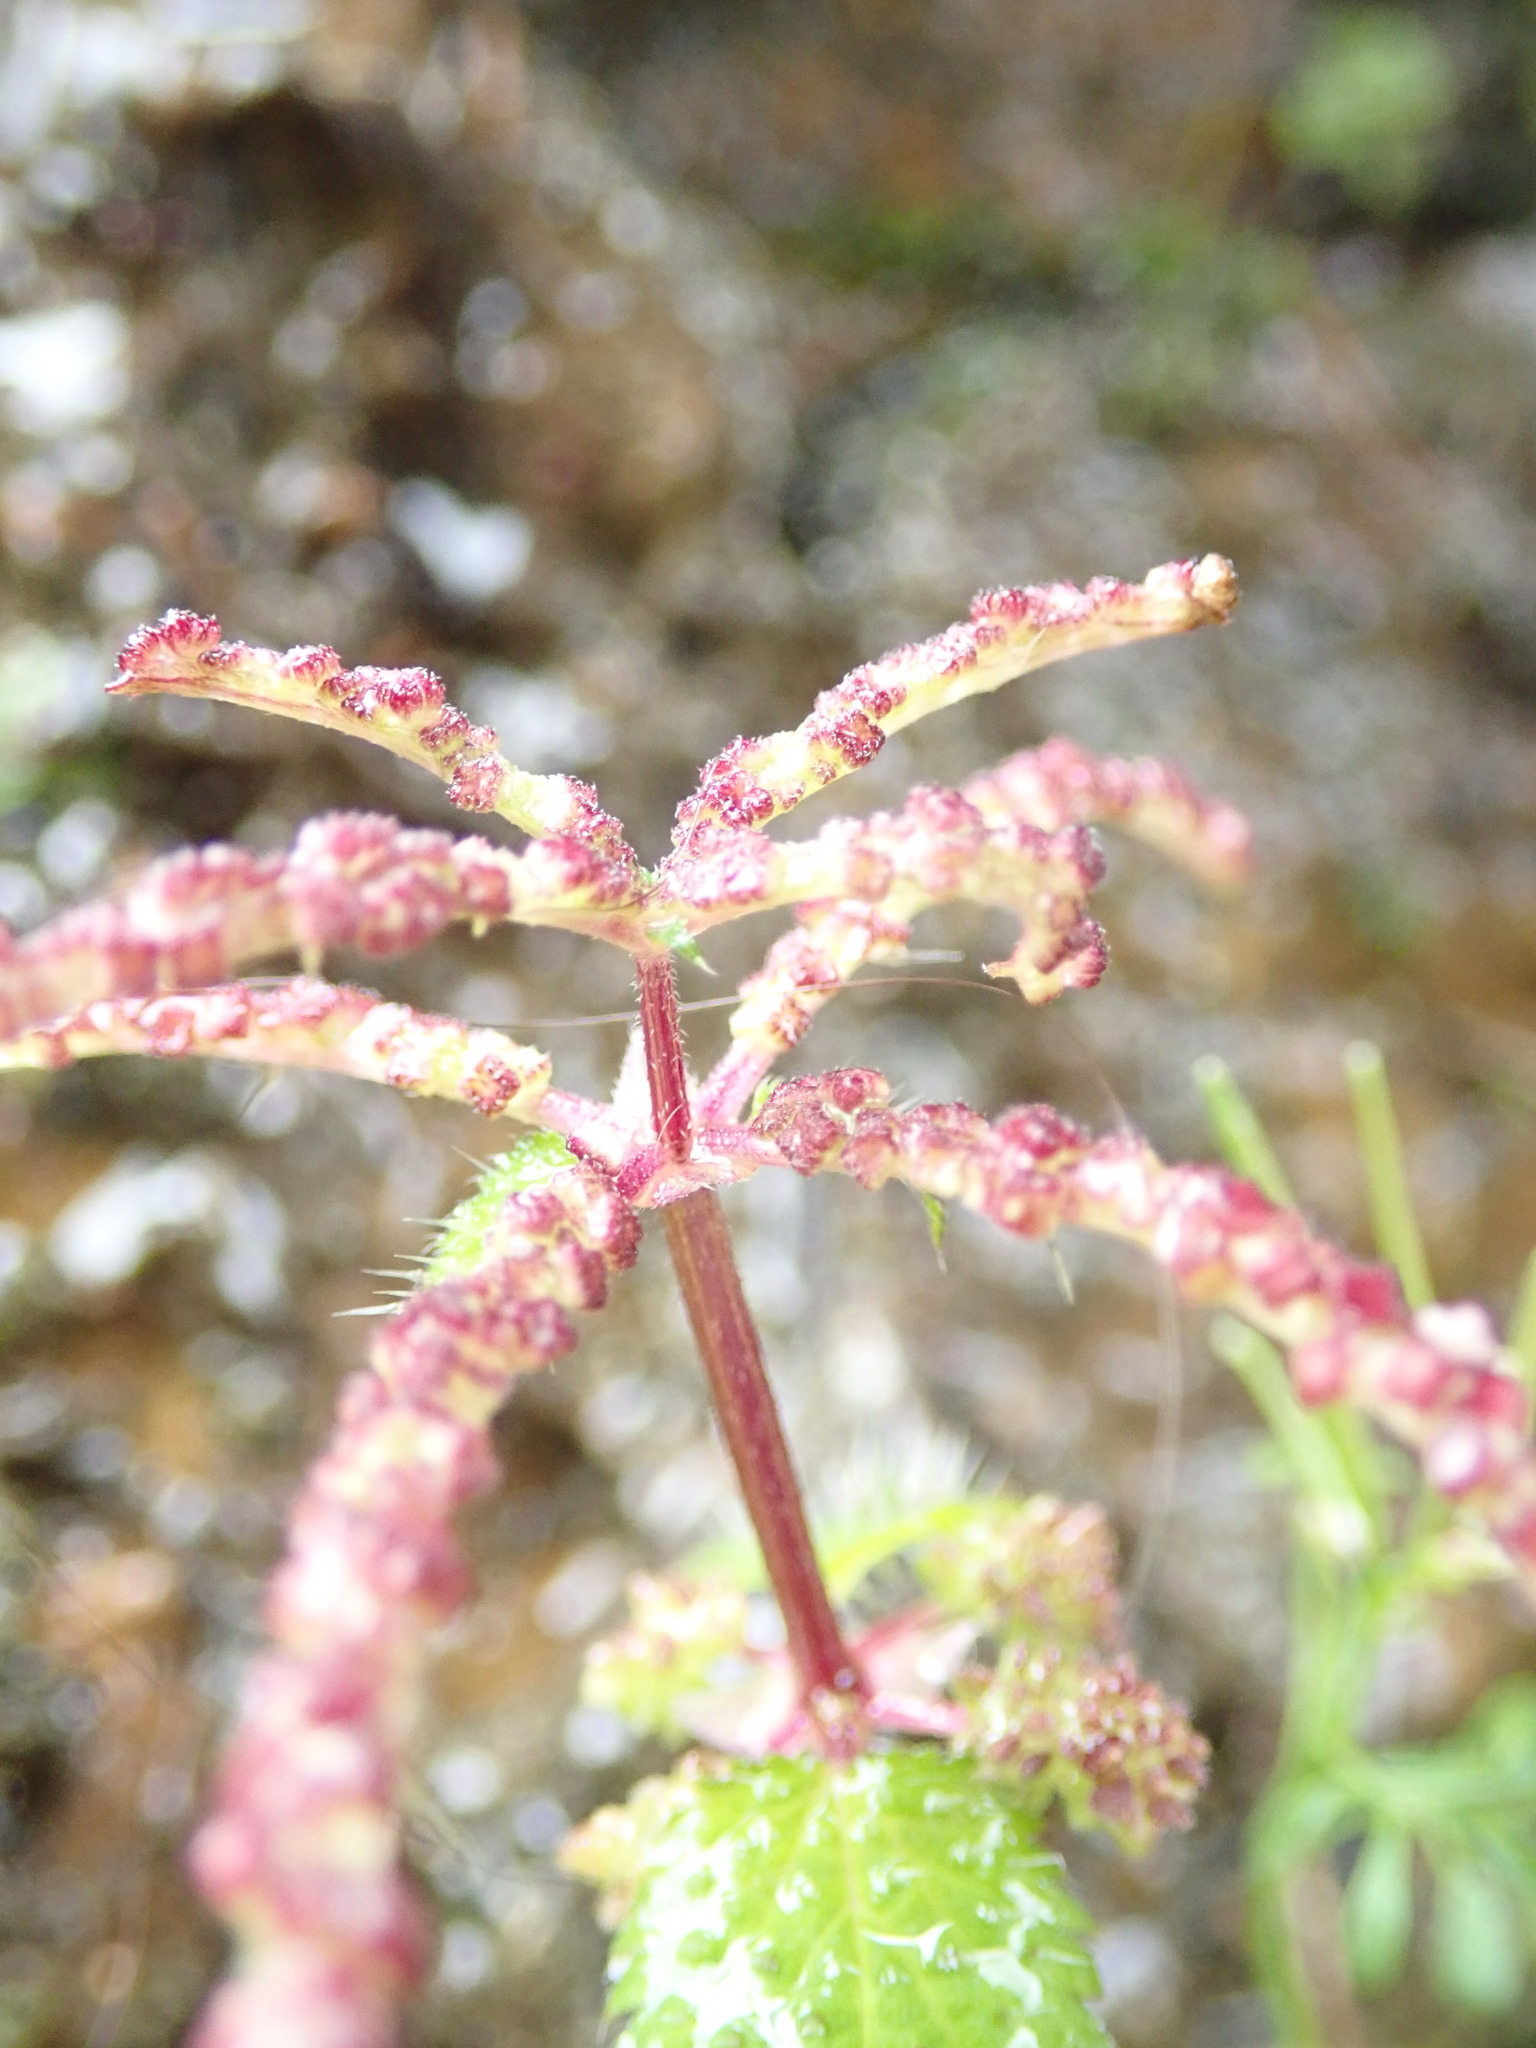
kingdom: Plantae
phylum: Tracheophyta
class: Magnoliopsida
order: Rosales
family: Urticaceae
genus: Urtica
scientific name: Urtica membranacea
